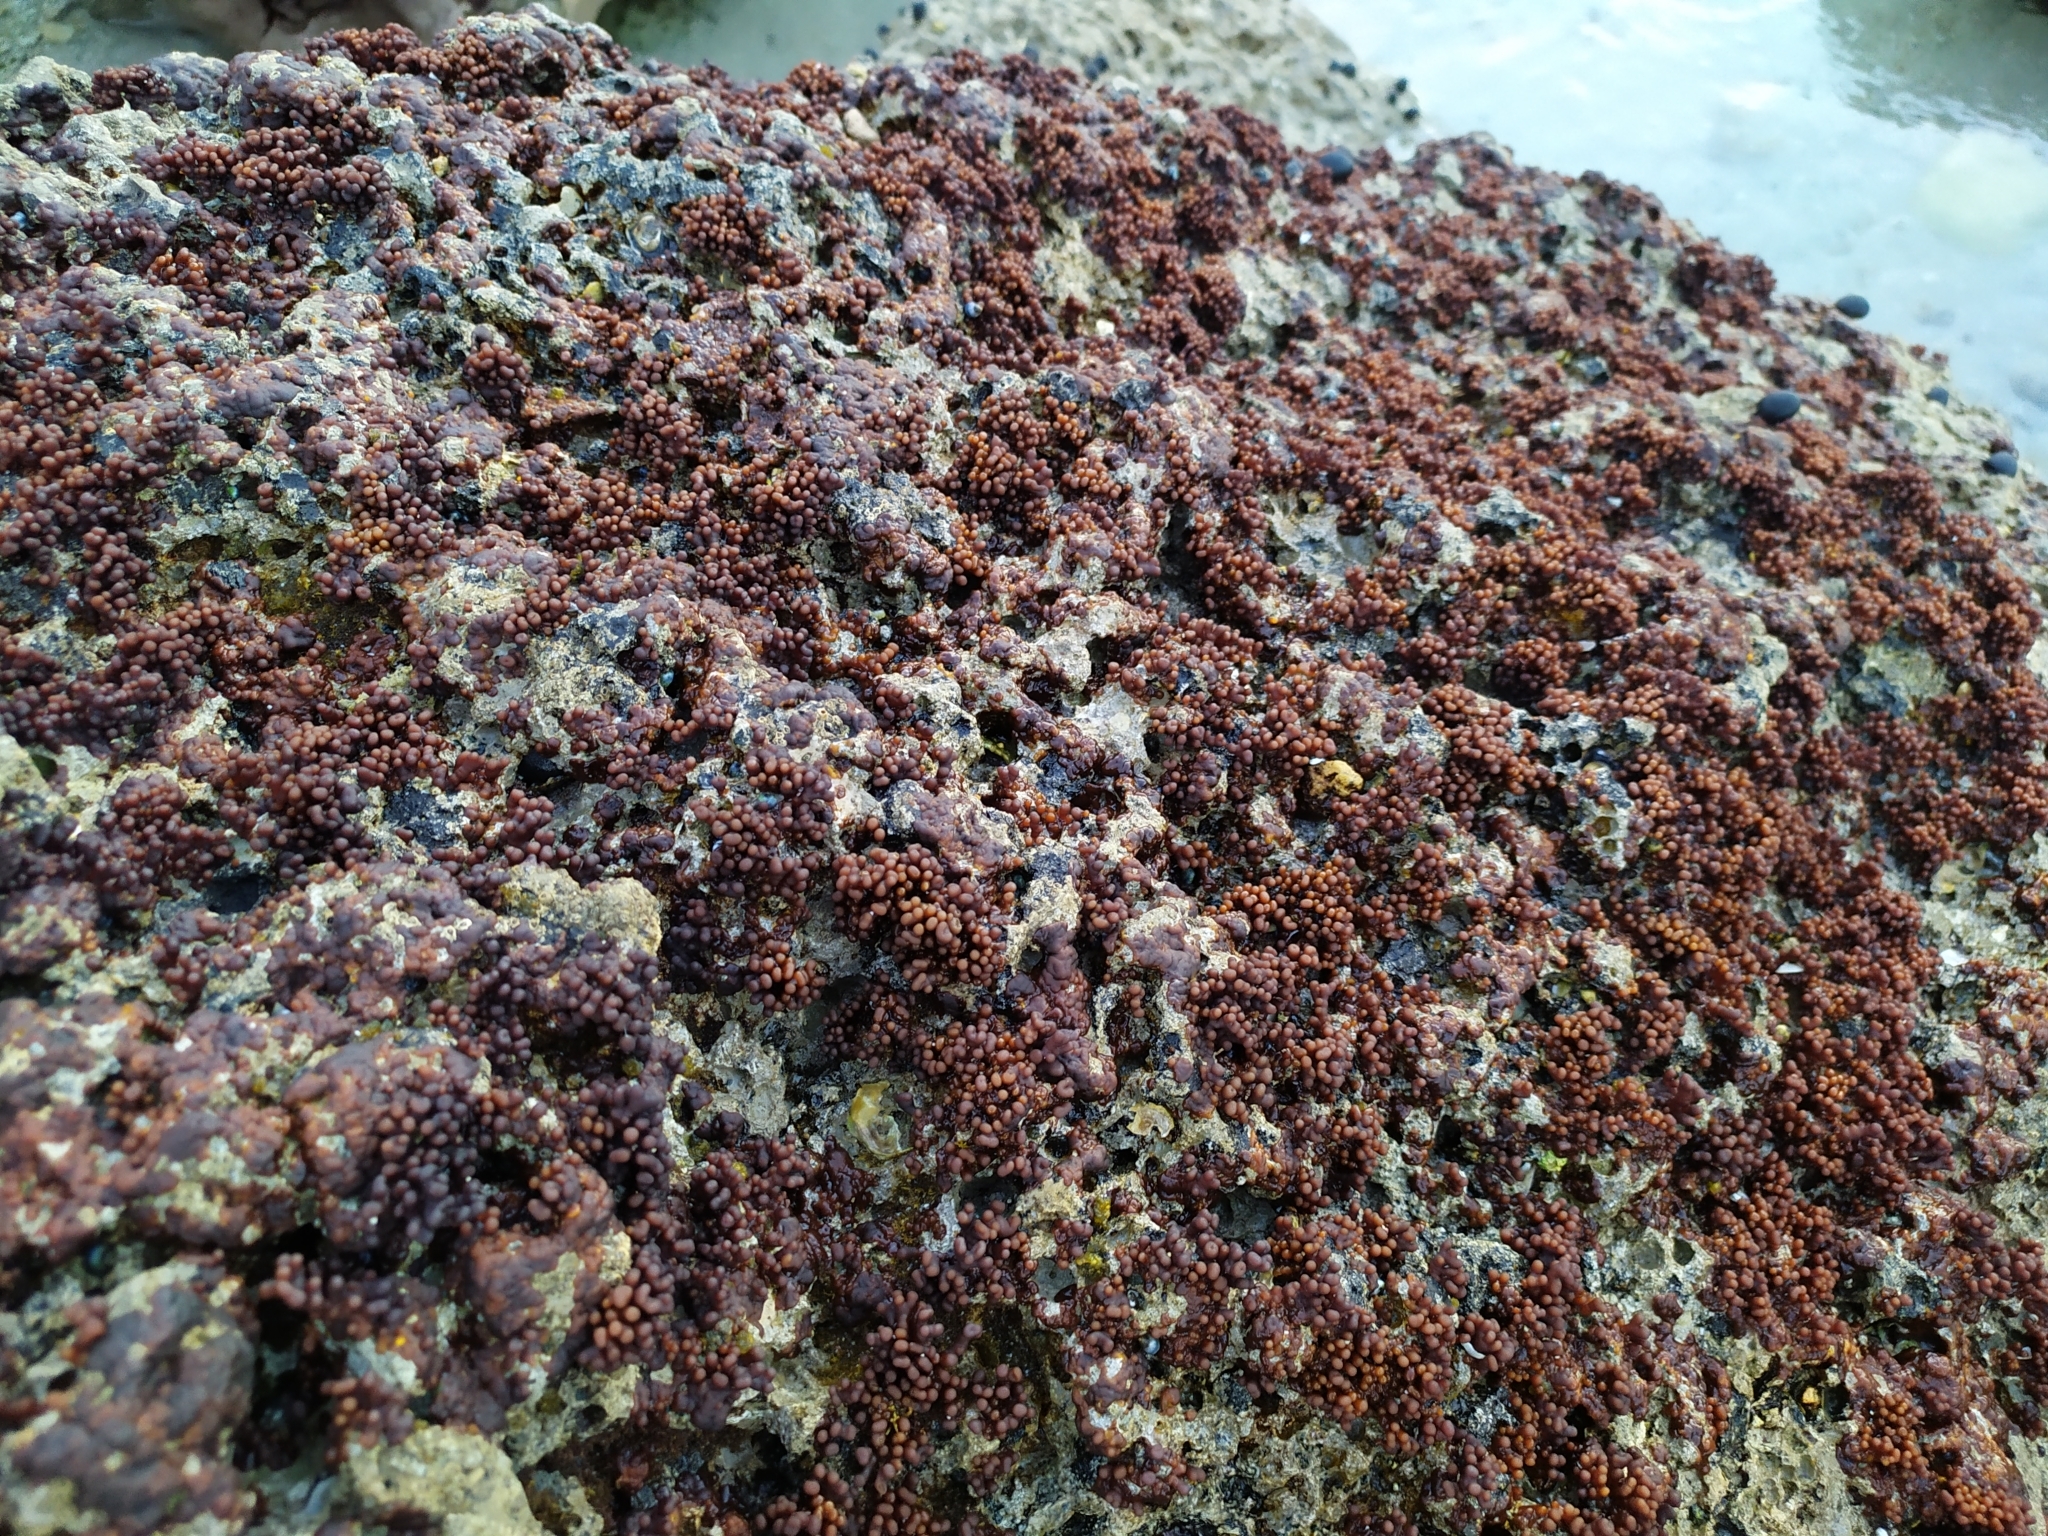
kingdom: Plantae
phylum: Rhodophyta
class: Florideophyceae
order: Hildenbrandiales
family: Hildenbrandiaceae
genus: Apophlaea
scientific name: Apophlaea sinclairii
